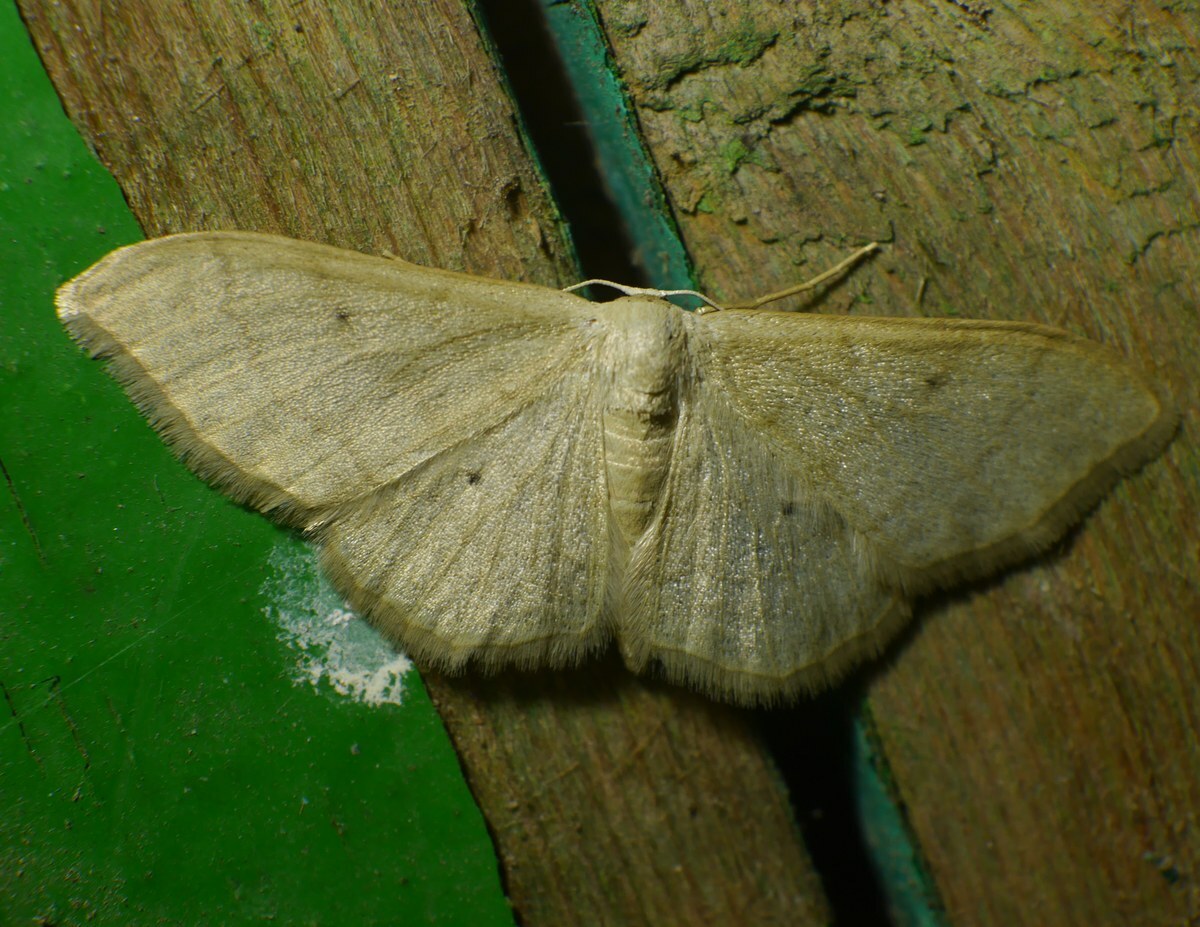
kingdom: Animalia
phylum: Arthropoda
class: Insecta
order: Lepidoptera
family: Geometridae
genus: Idaea
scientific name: Idaea straminata
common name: Plain wave
